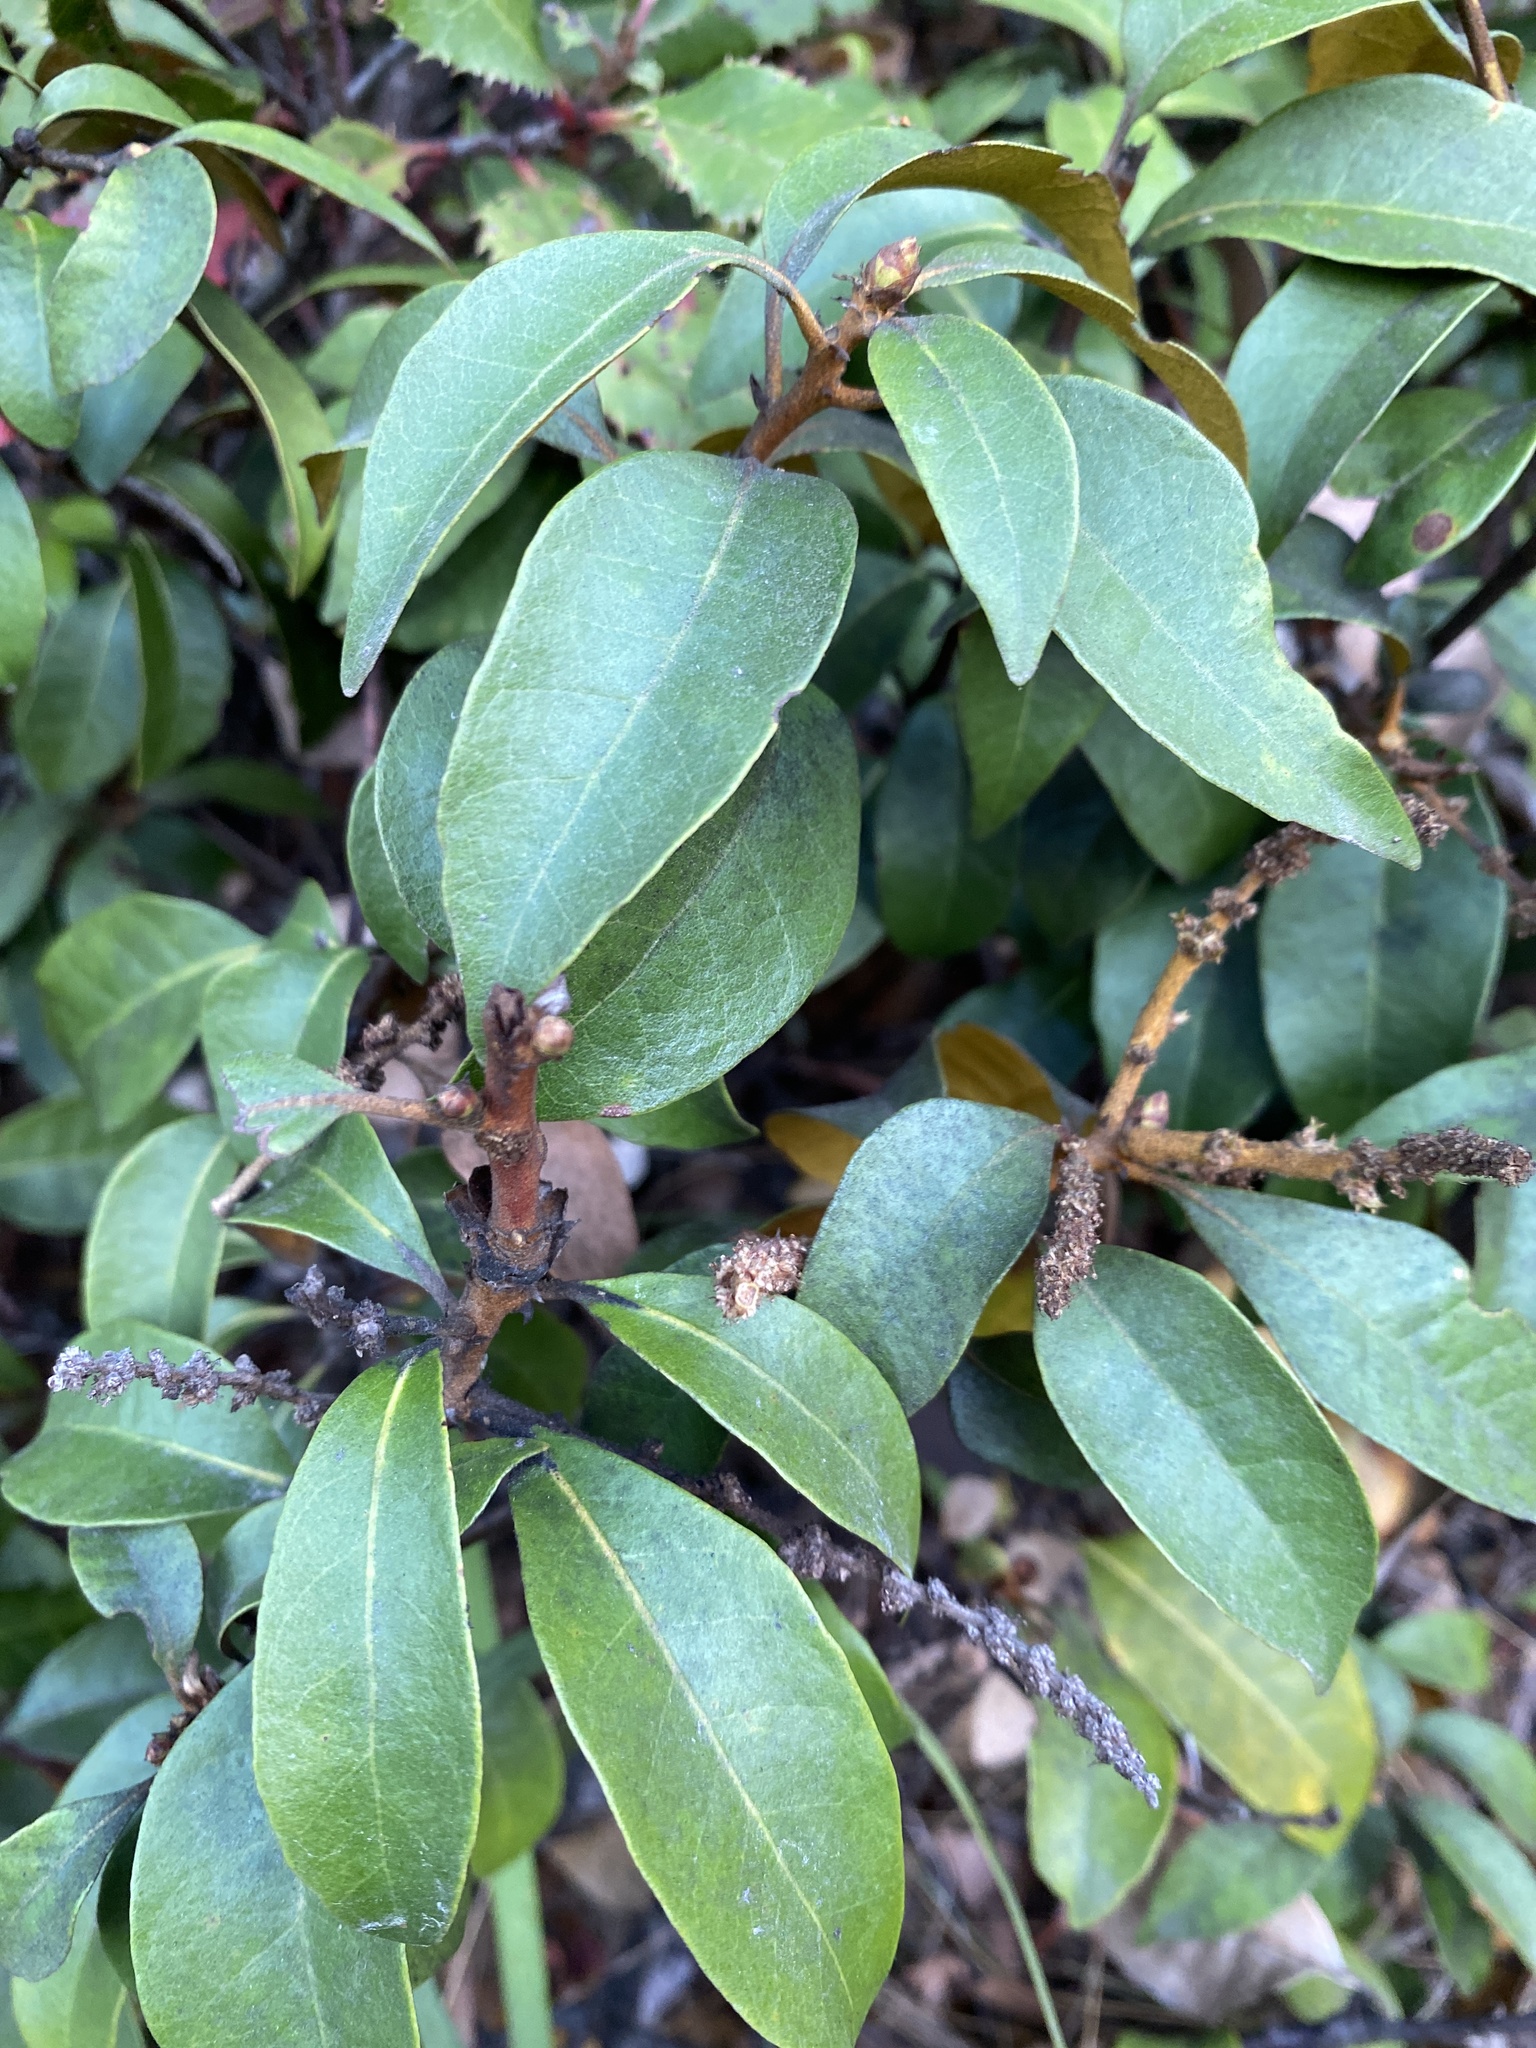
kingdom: Plantae
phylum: Tracheophyta
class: Magnoliopsida
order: Fagales
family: Fagaceae
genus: Chrysolepis
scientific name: Chrysolepis chrysophylla
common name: Giant chinquapin
